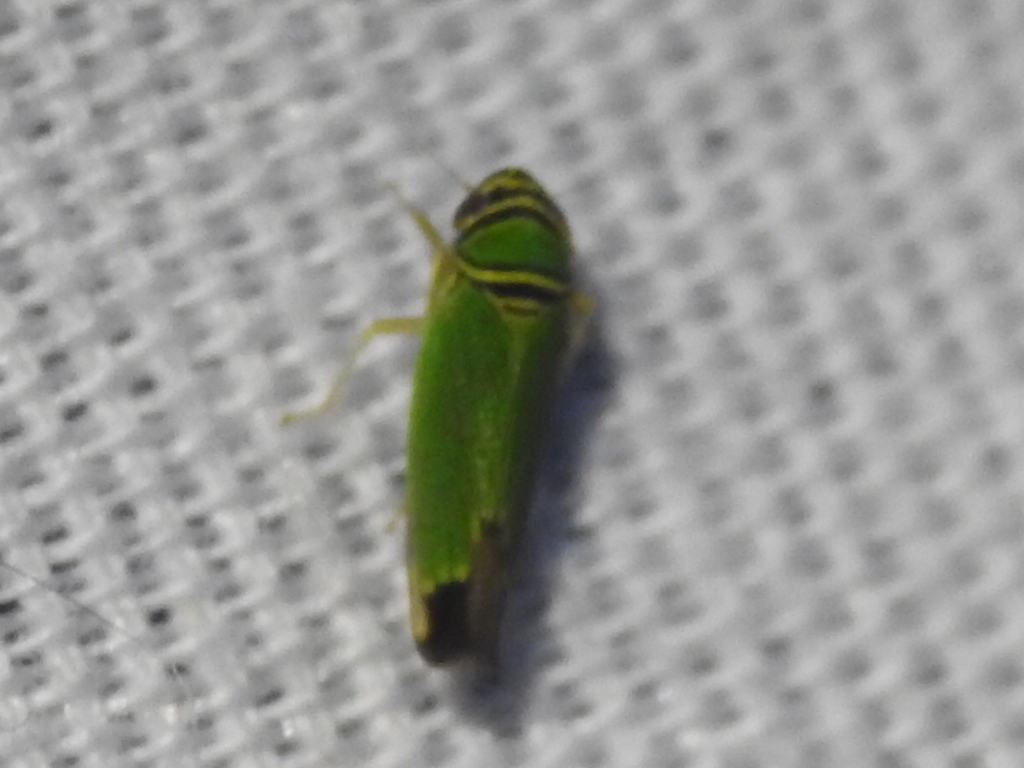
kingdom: Animalia
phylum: Arthropoda
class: Insecta
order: Hemiptera
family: Cicadellidae
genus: Tylozygus
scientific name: Tylozygus geometricus
